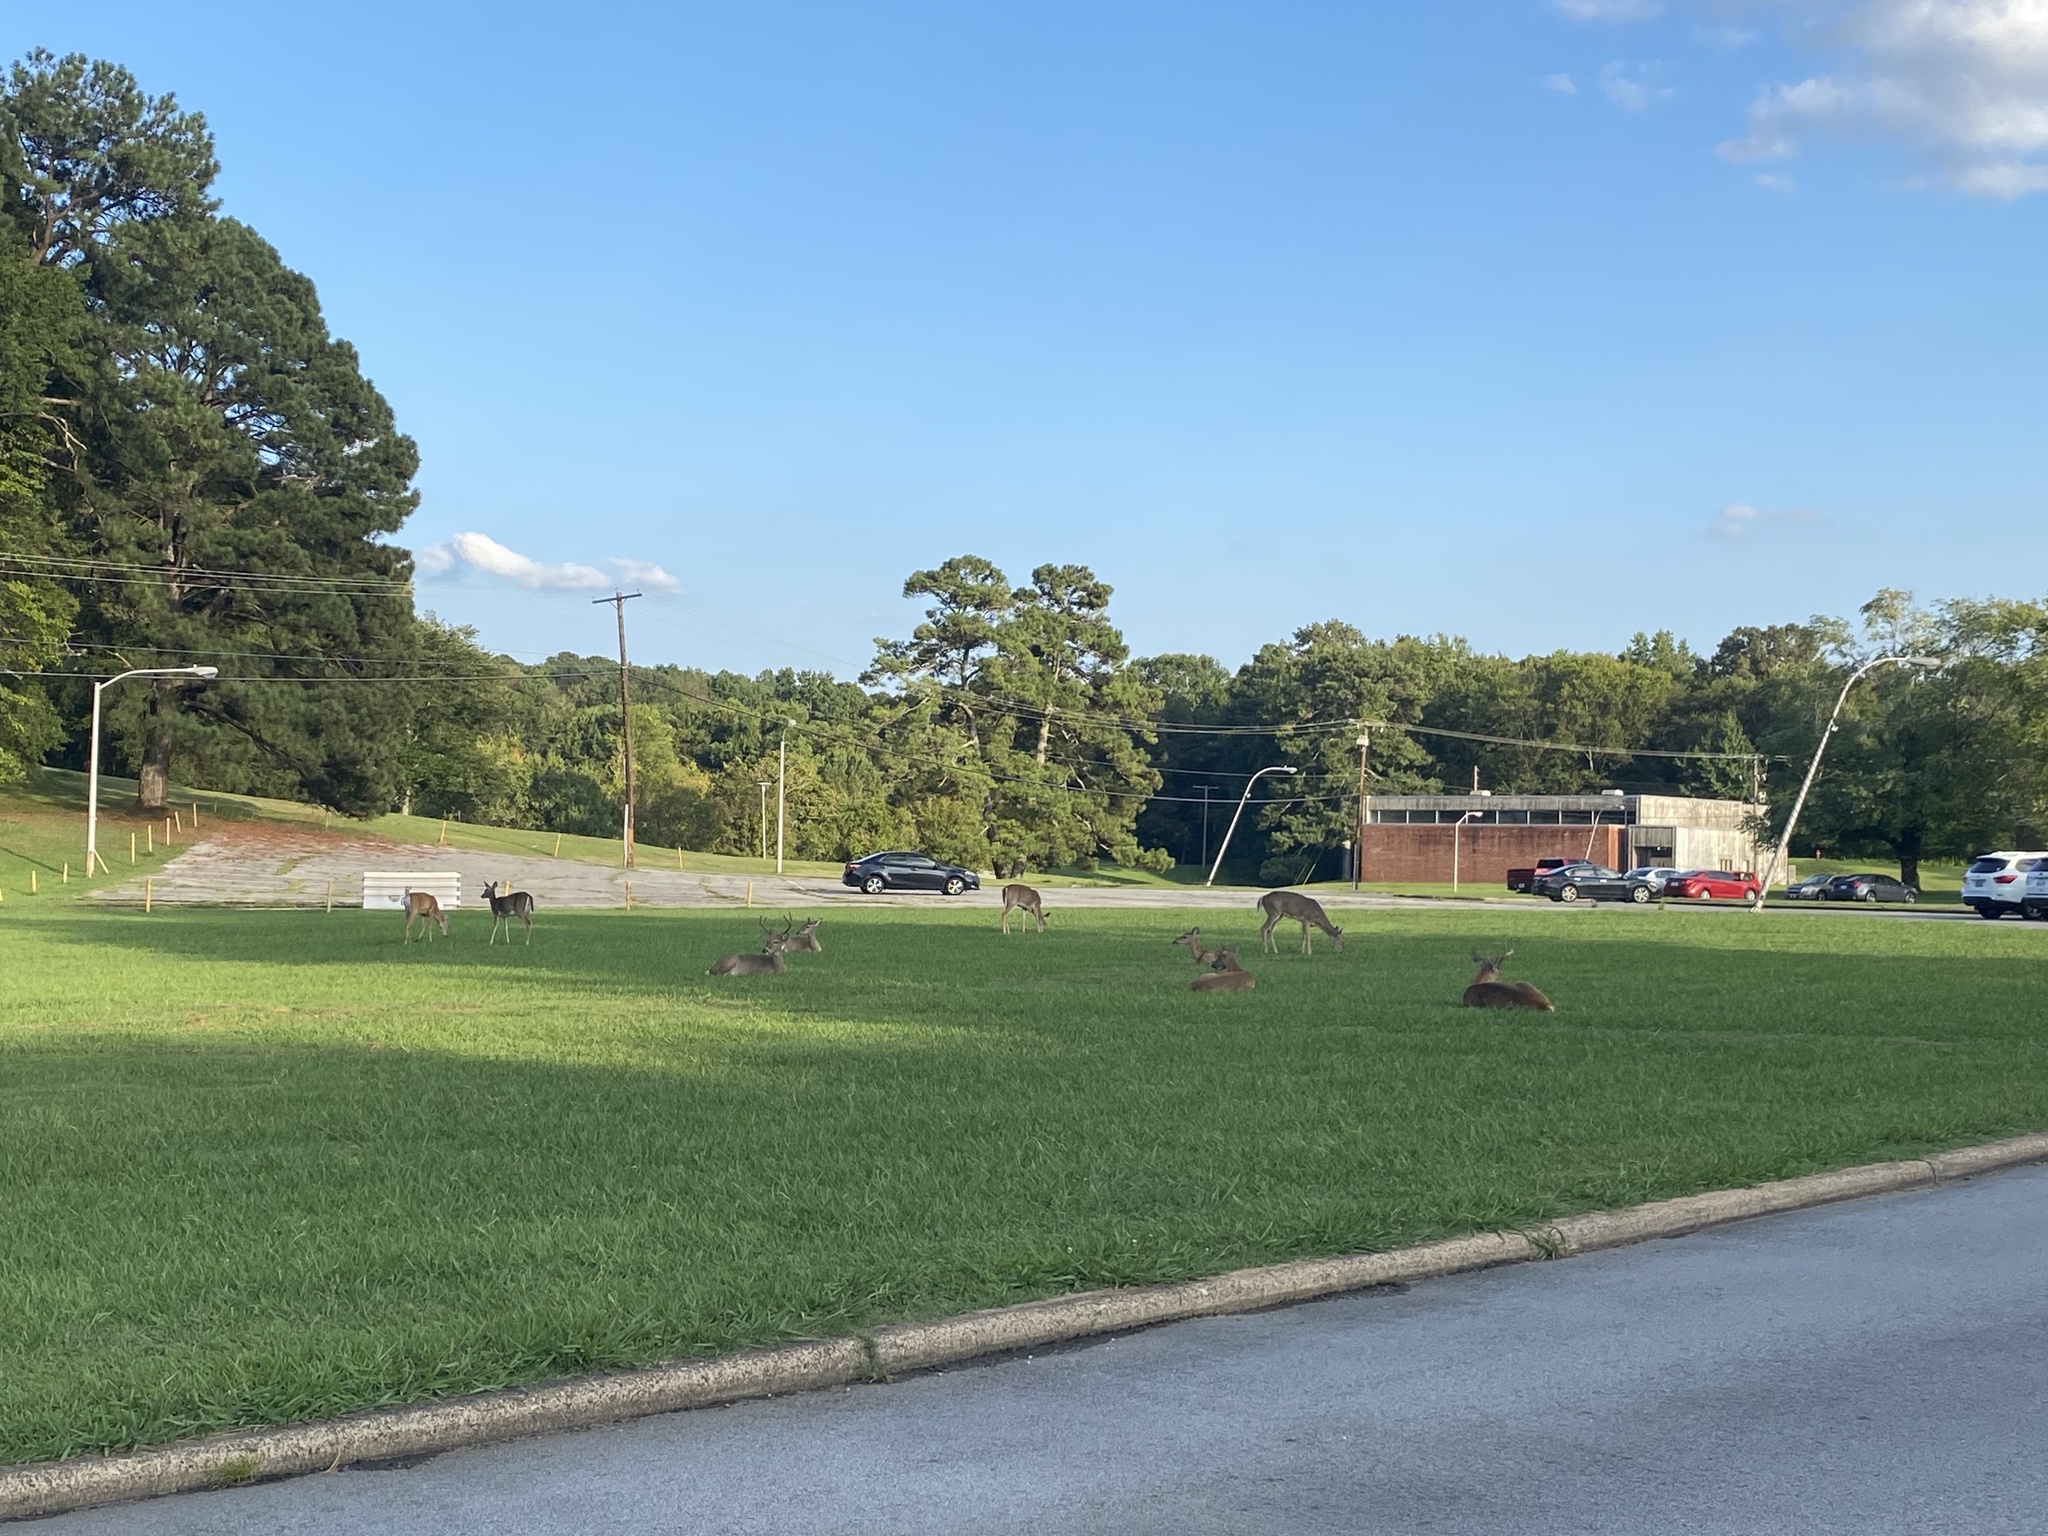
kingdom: Animalia
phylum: Chordata
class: Mammalia
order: Artiodactyla
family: Cervidae
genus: Odocoileus
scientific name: Odocoileus virginianus
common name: White-tailed deer
